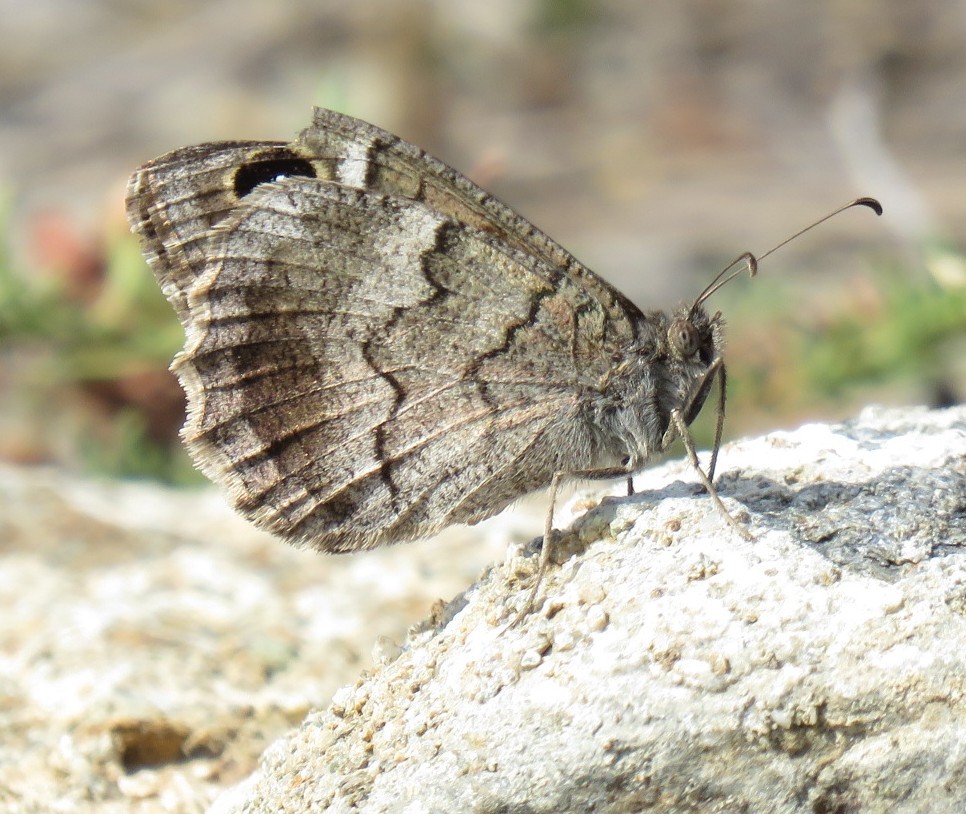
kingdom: Animalia
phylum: Arthropoda
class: Insecta
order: Lepidoptera
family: Nymphalidae
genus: Hipparchia
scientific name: Hipparchia statilinus
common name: Tree grayling
